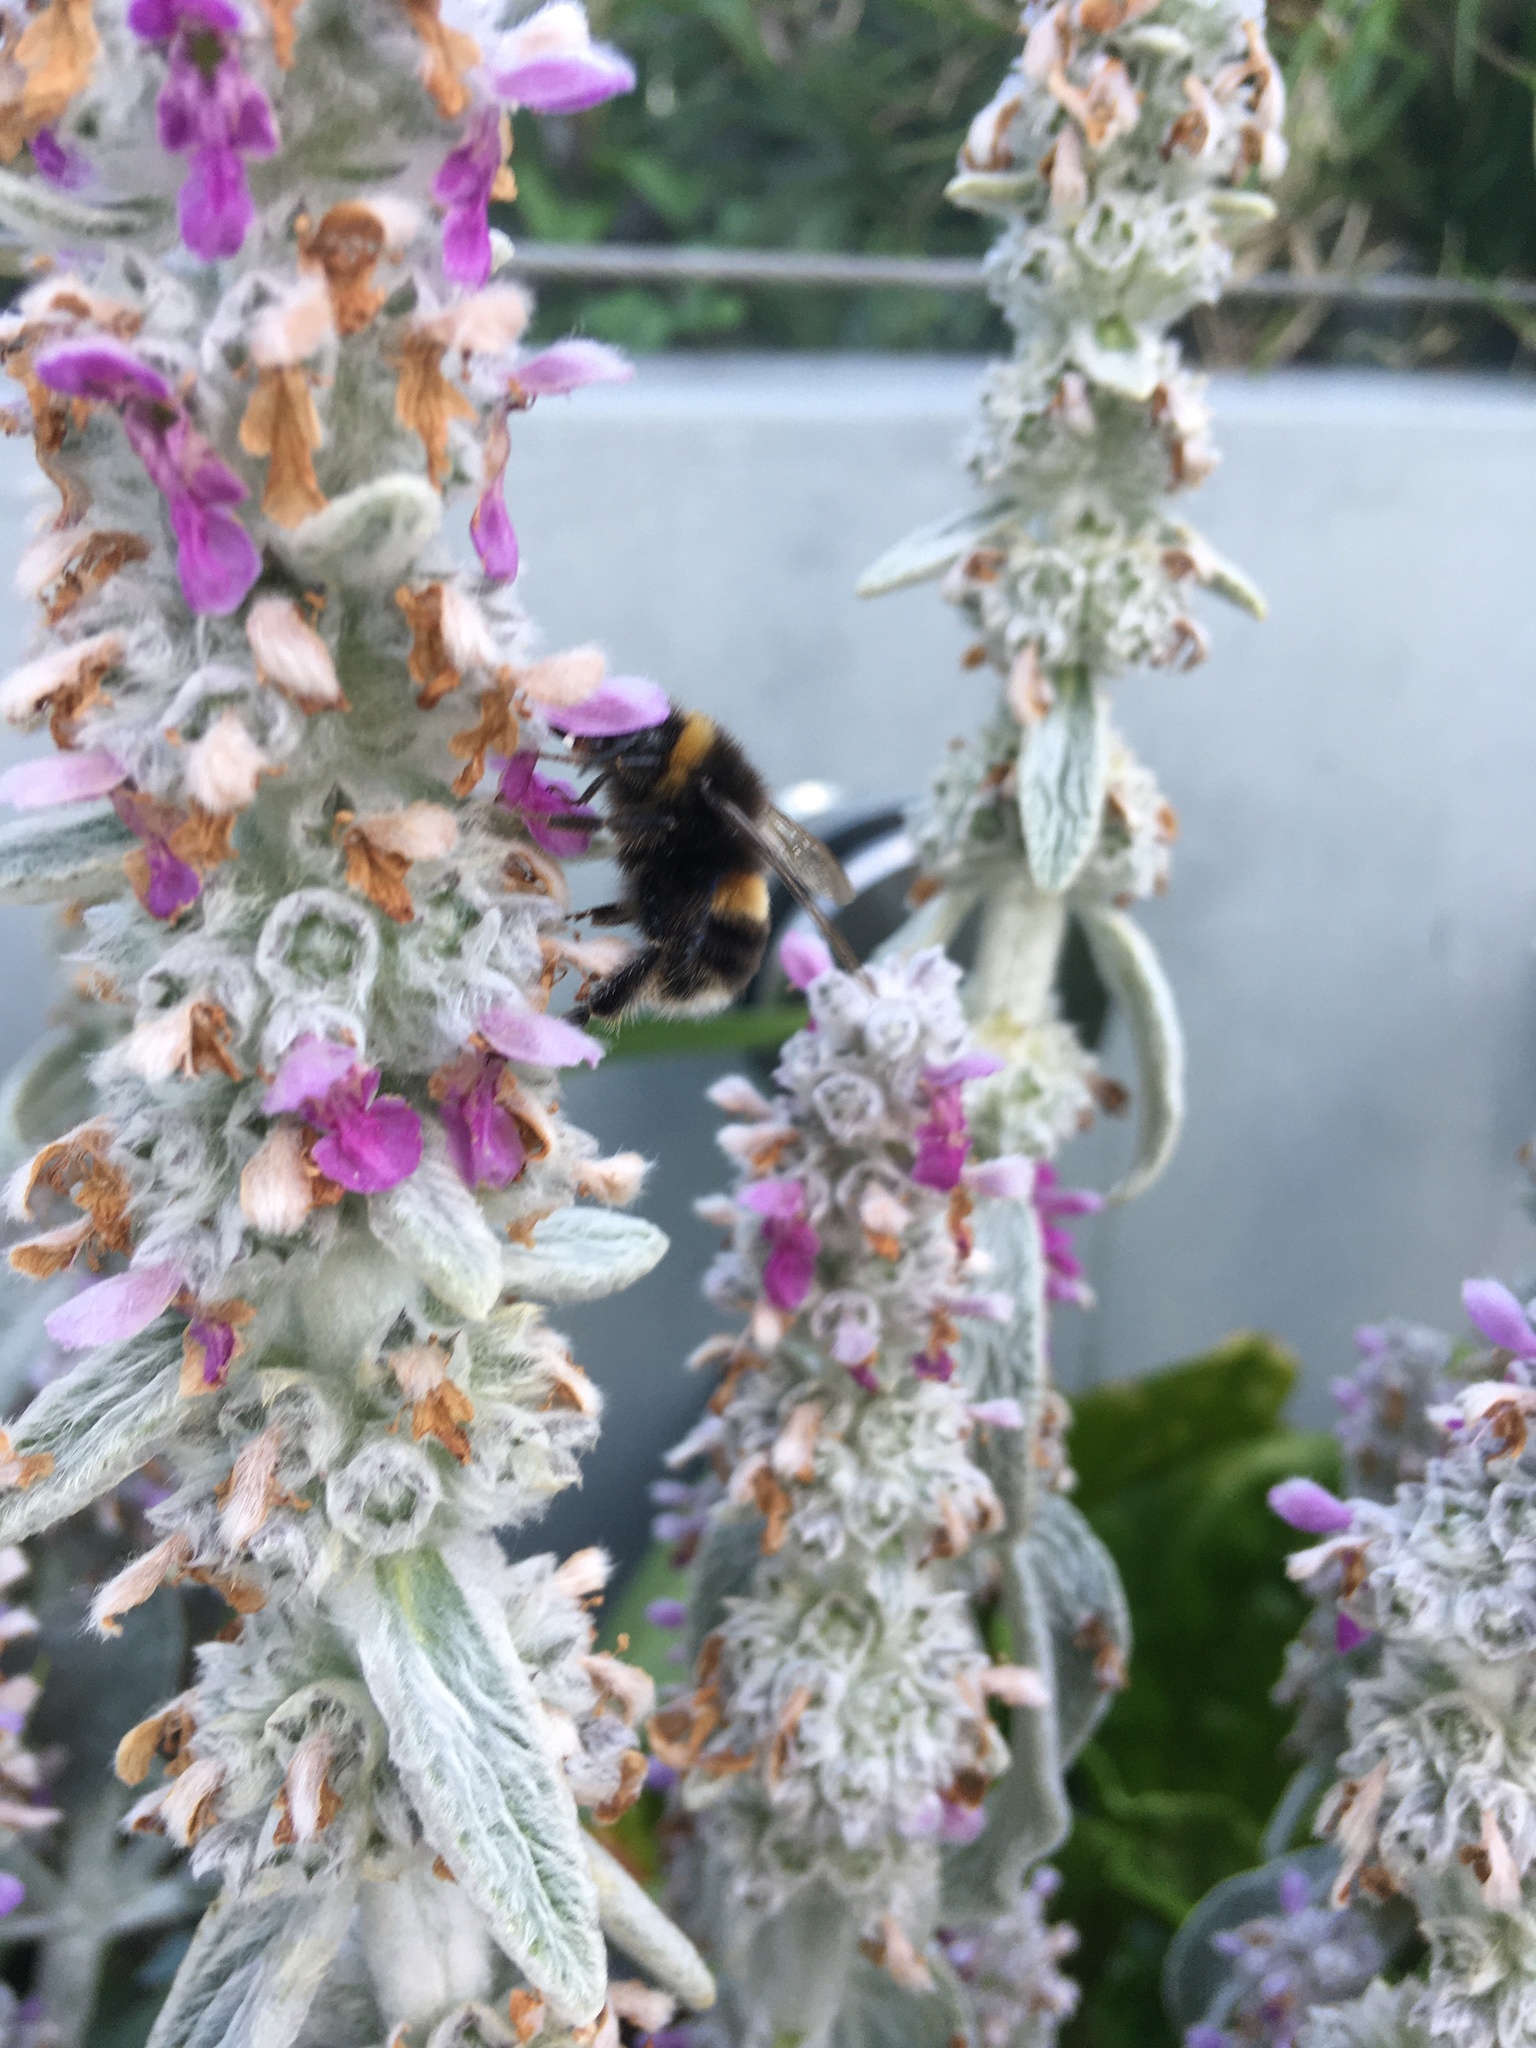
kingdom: Animalia
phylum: Arthropoda
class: Insecta
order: Hymenoptera
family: Apidae
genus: Bombus
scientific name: Bombus terrestris
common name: Buff-tailed bumblebee
